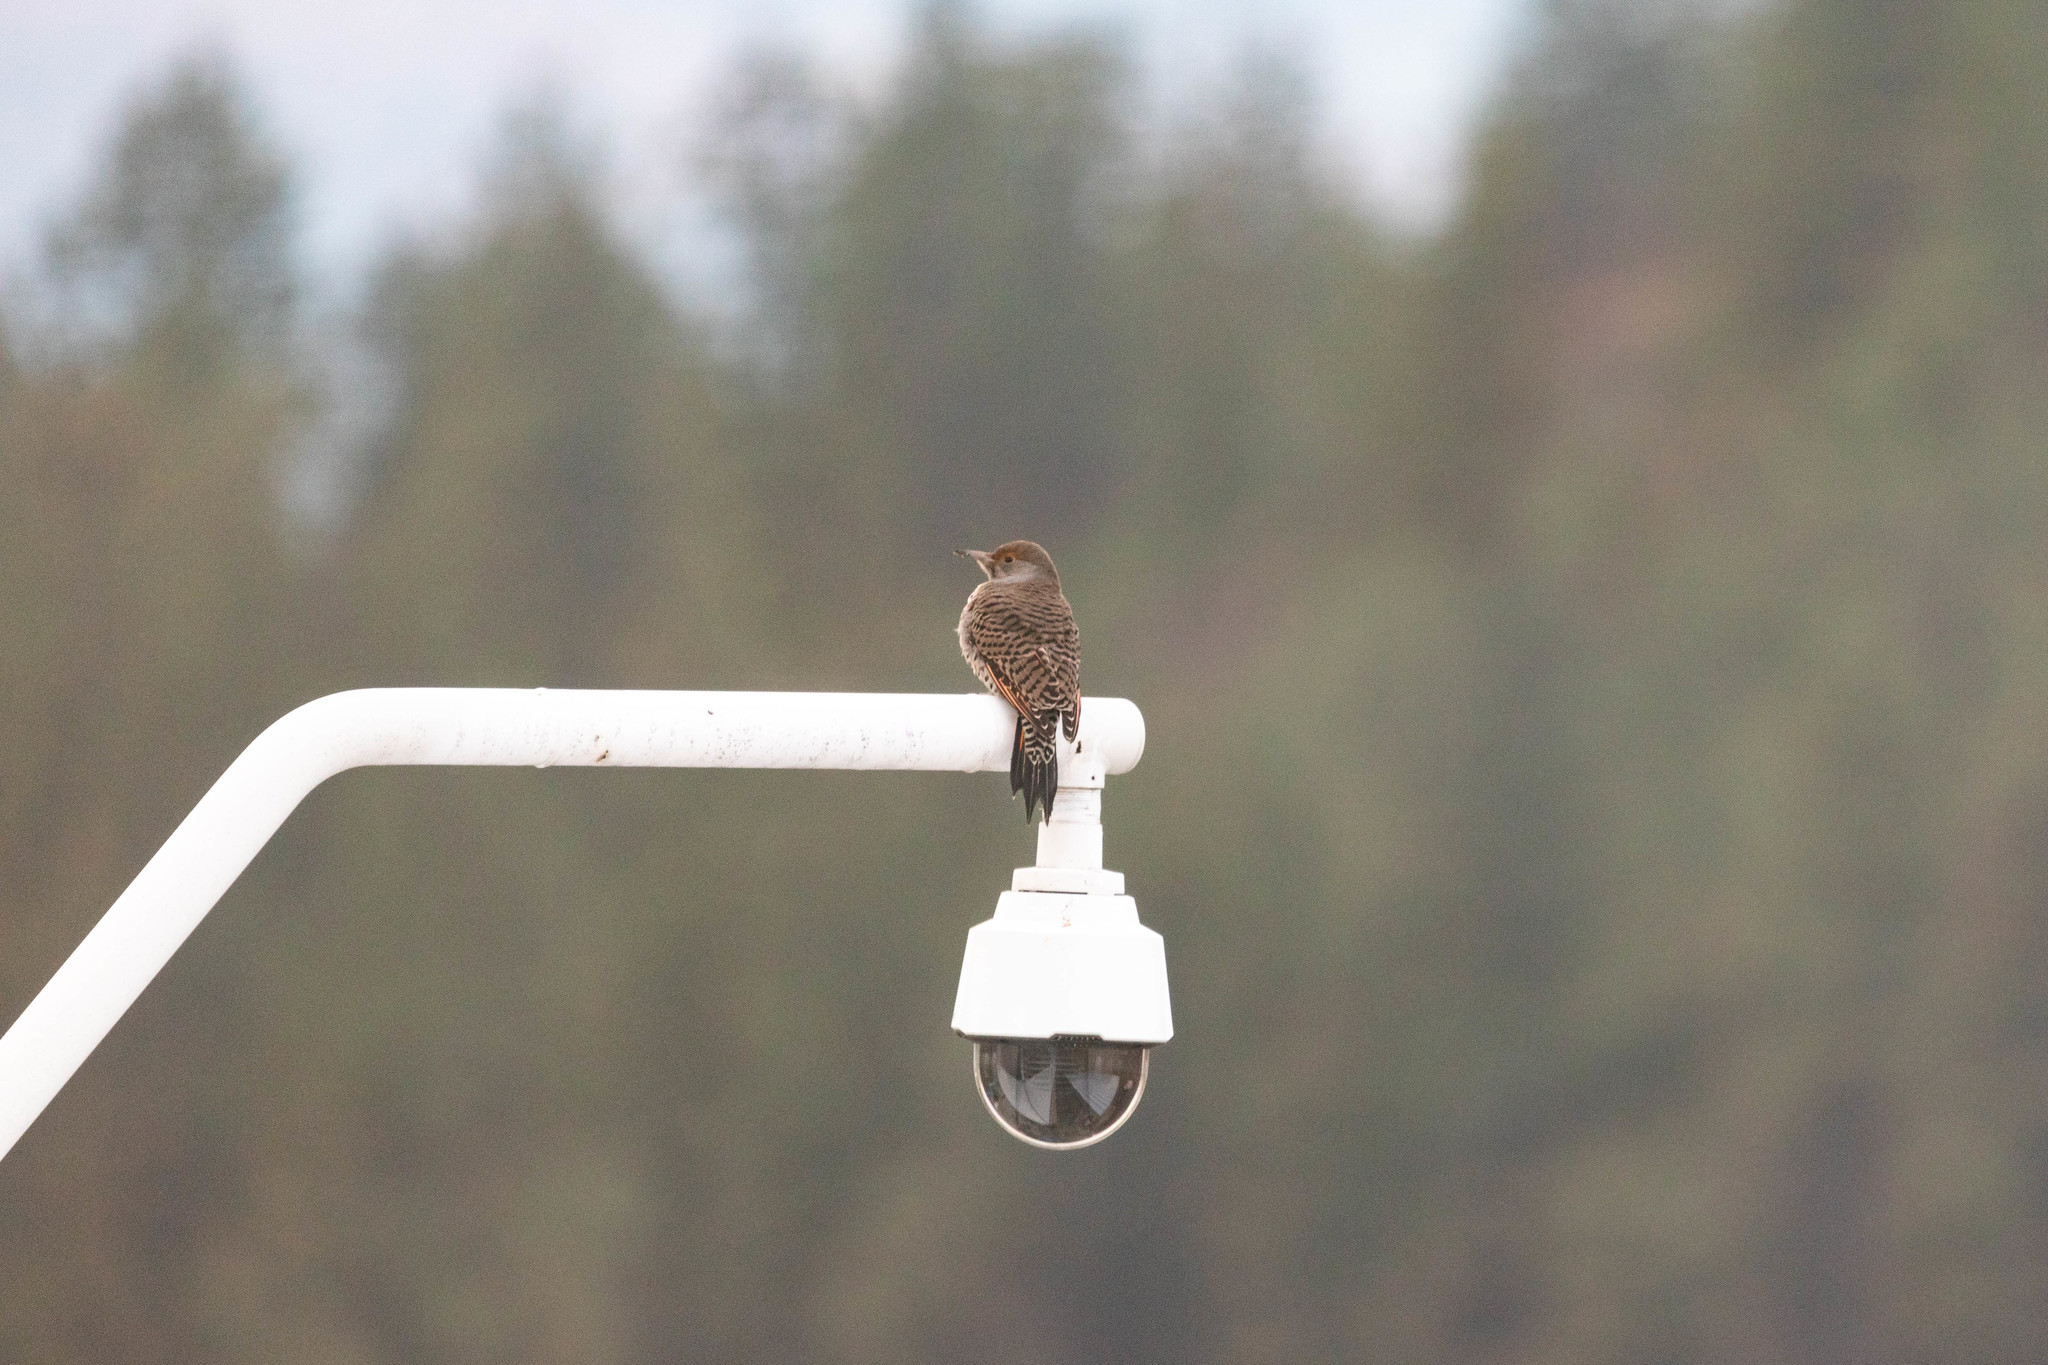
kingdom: Animalia
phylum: Chordata
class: Aves
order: Piciformes
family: Picidae
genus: Colaptes
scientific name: Colaptes auratus
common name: Northern flicker
